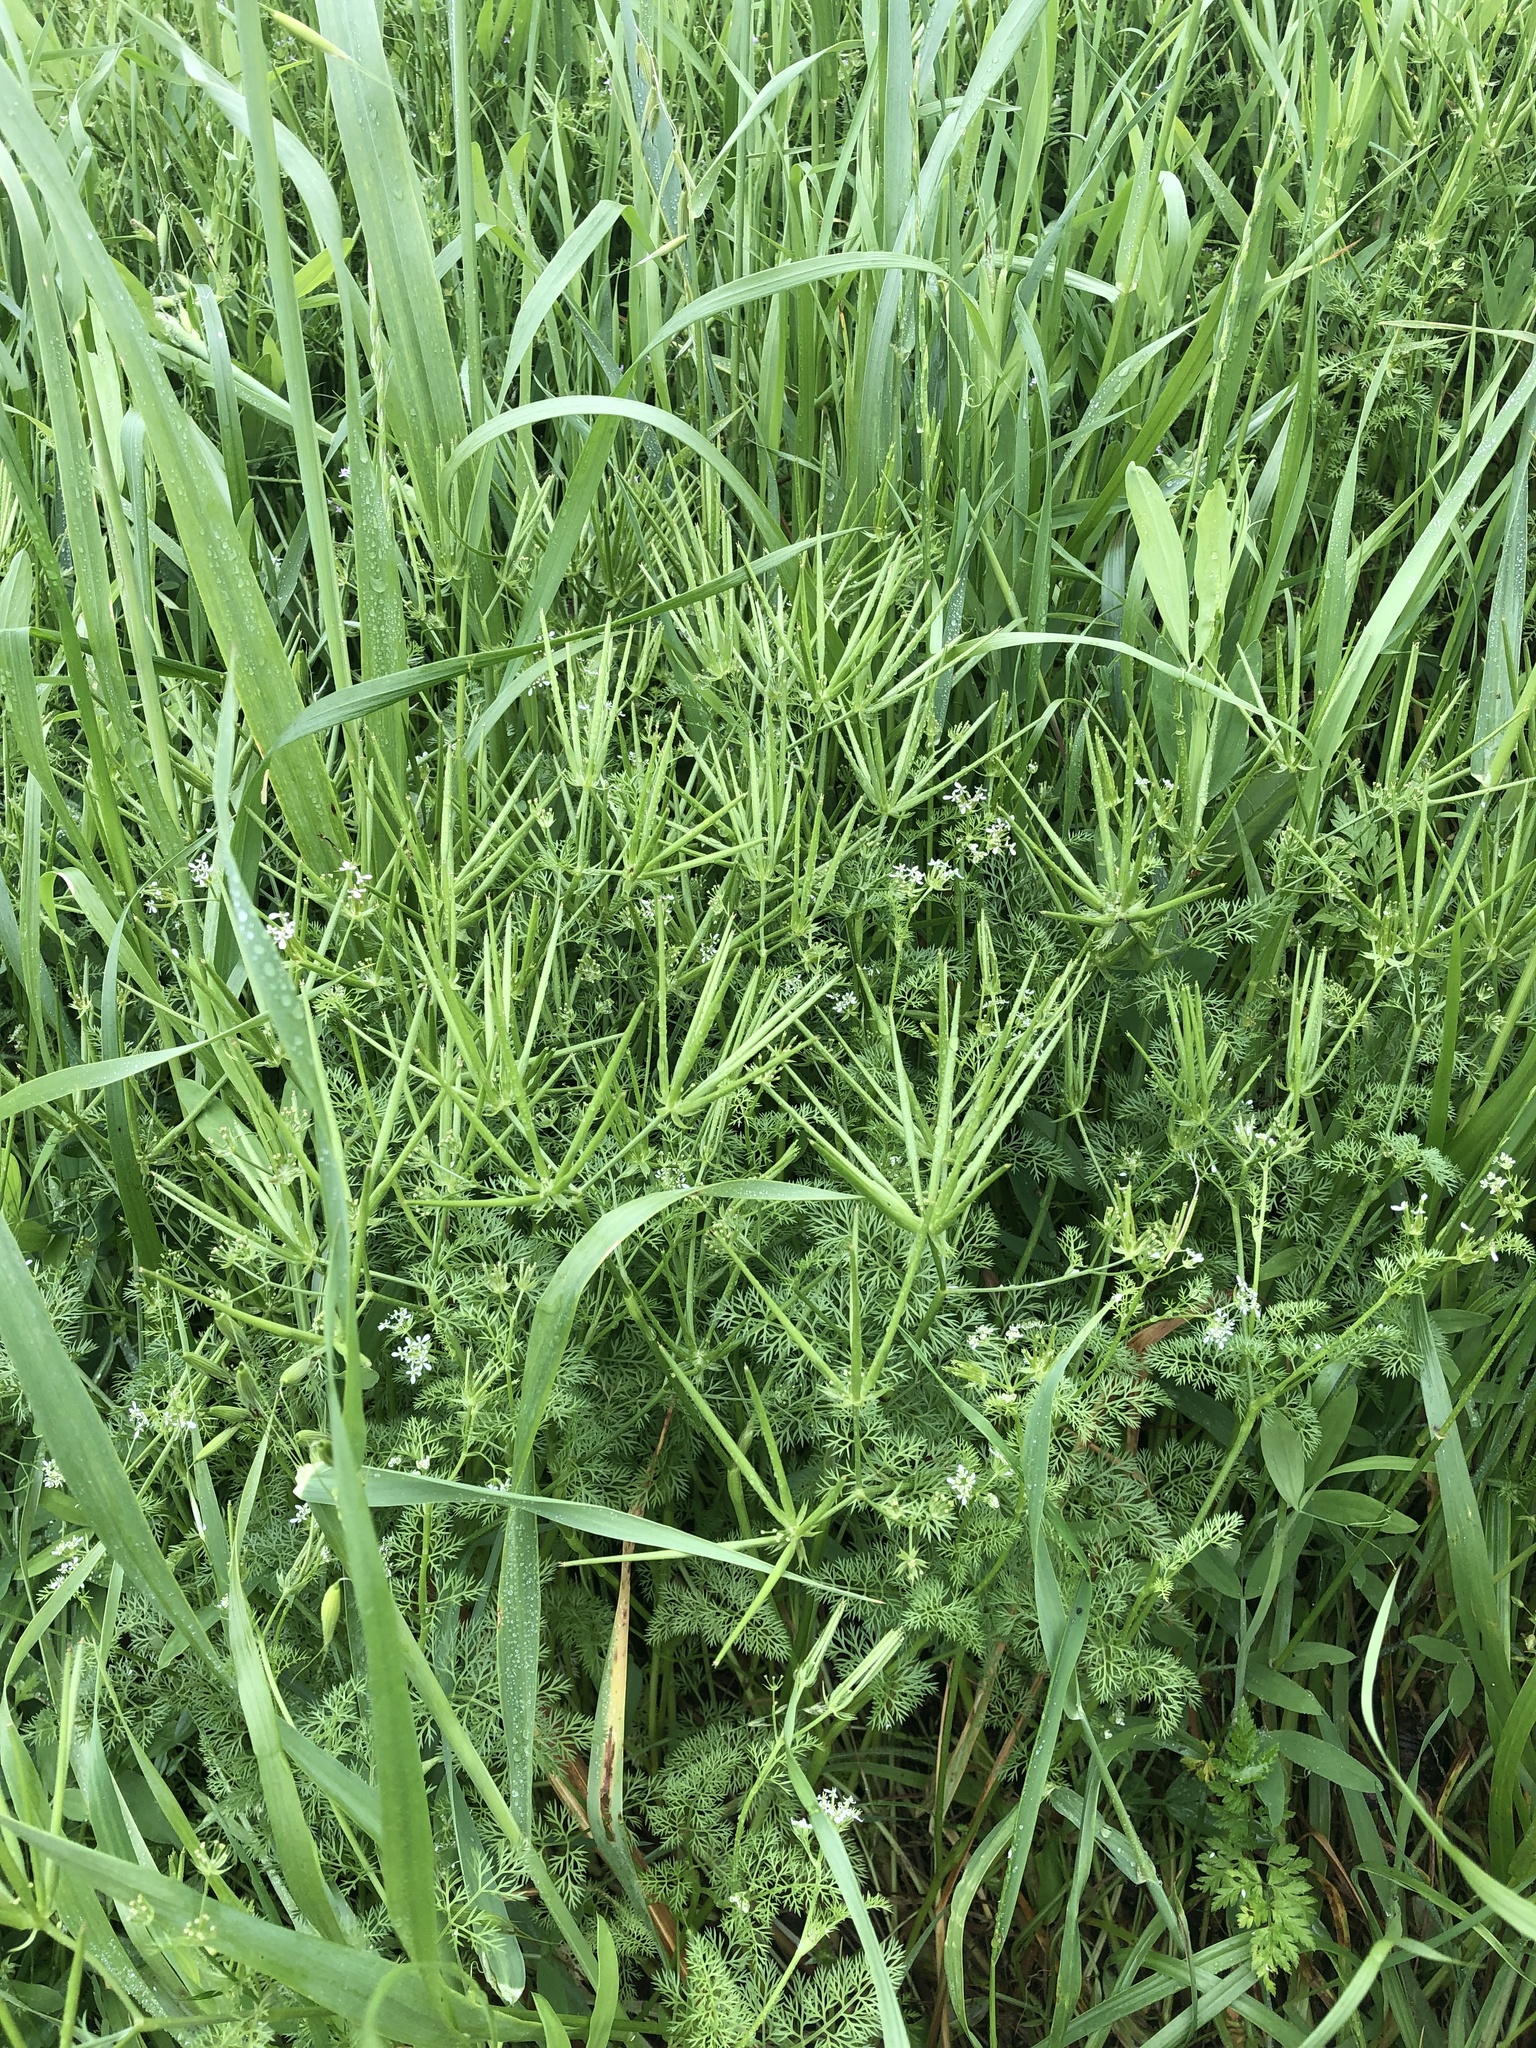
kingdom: Plantae
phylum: Tracheophyta
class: Magnoliopsida
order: Apiales
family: Apiaceae
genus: Scandix
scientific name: Scandix pecten-veneris
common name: Shepherd's-needle
